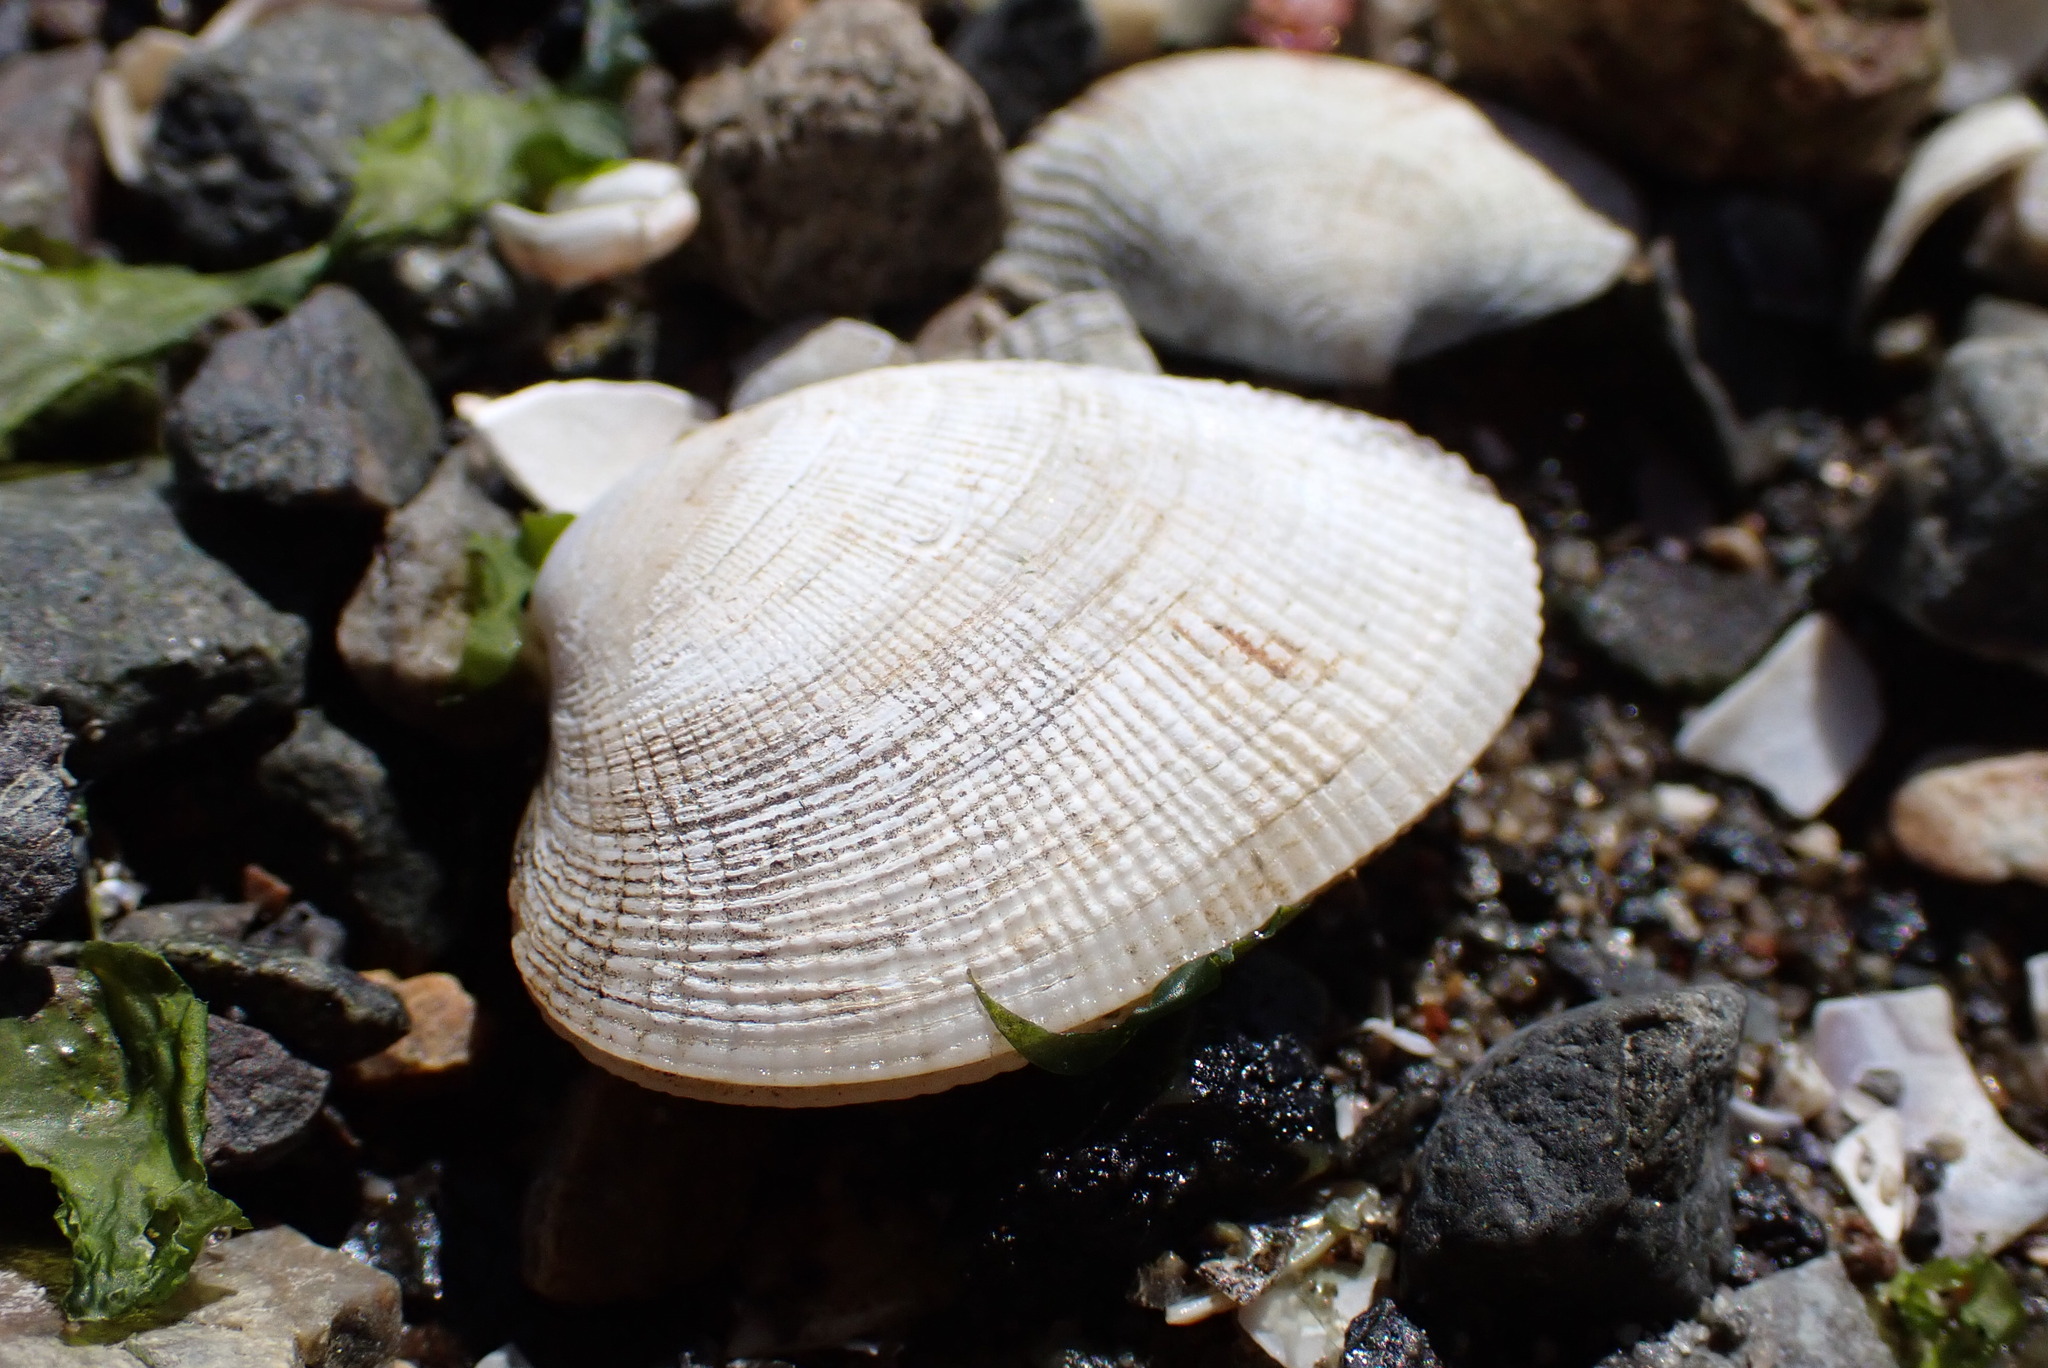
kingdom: Animalia
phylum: Mollusca
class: Bivalvia
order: Venerida
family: Veneridae
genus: Ruditapes
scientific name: Ruditapes philippinarum
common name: Manila clam
